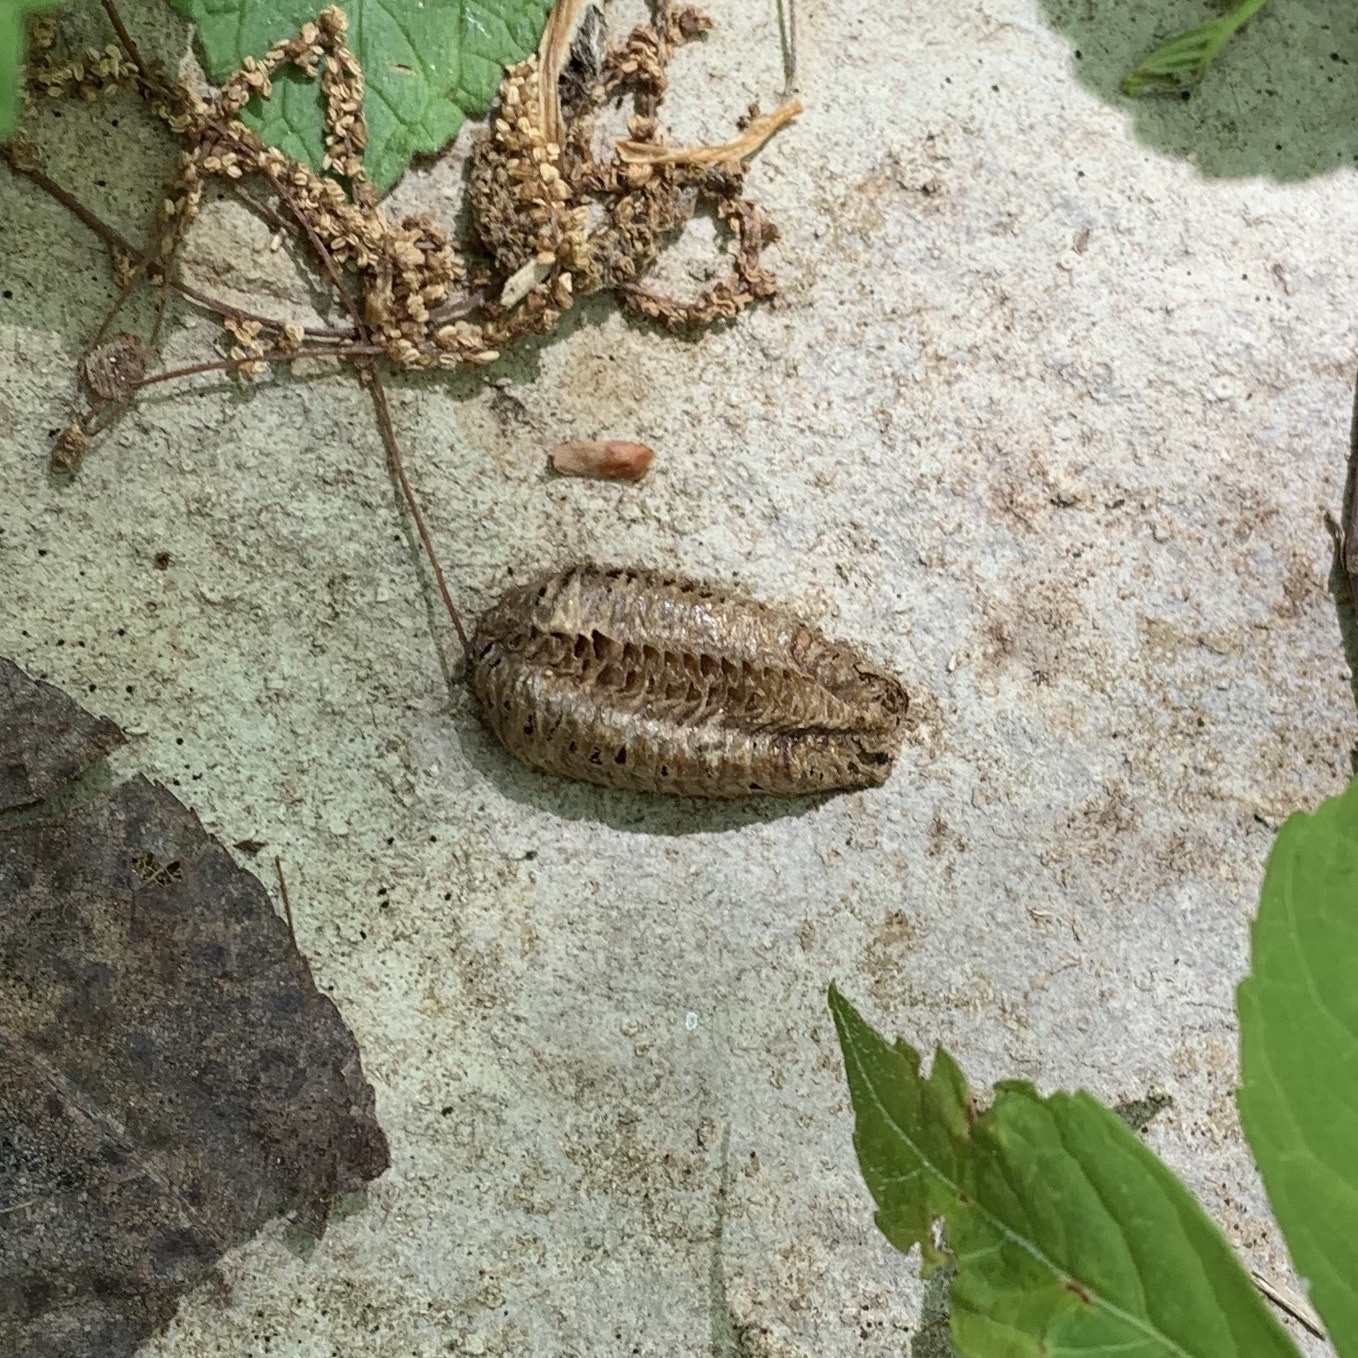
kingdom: Animalia
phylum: Arthropoda
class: Insecta
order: Mantodea
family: Mantidae
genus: Stagmomantis
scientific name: Stagmomantis carolina
